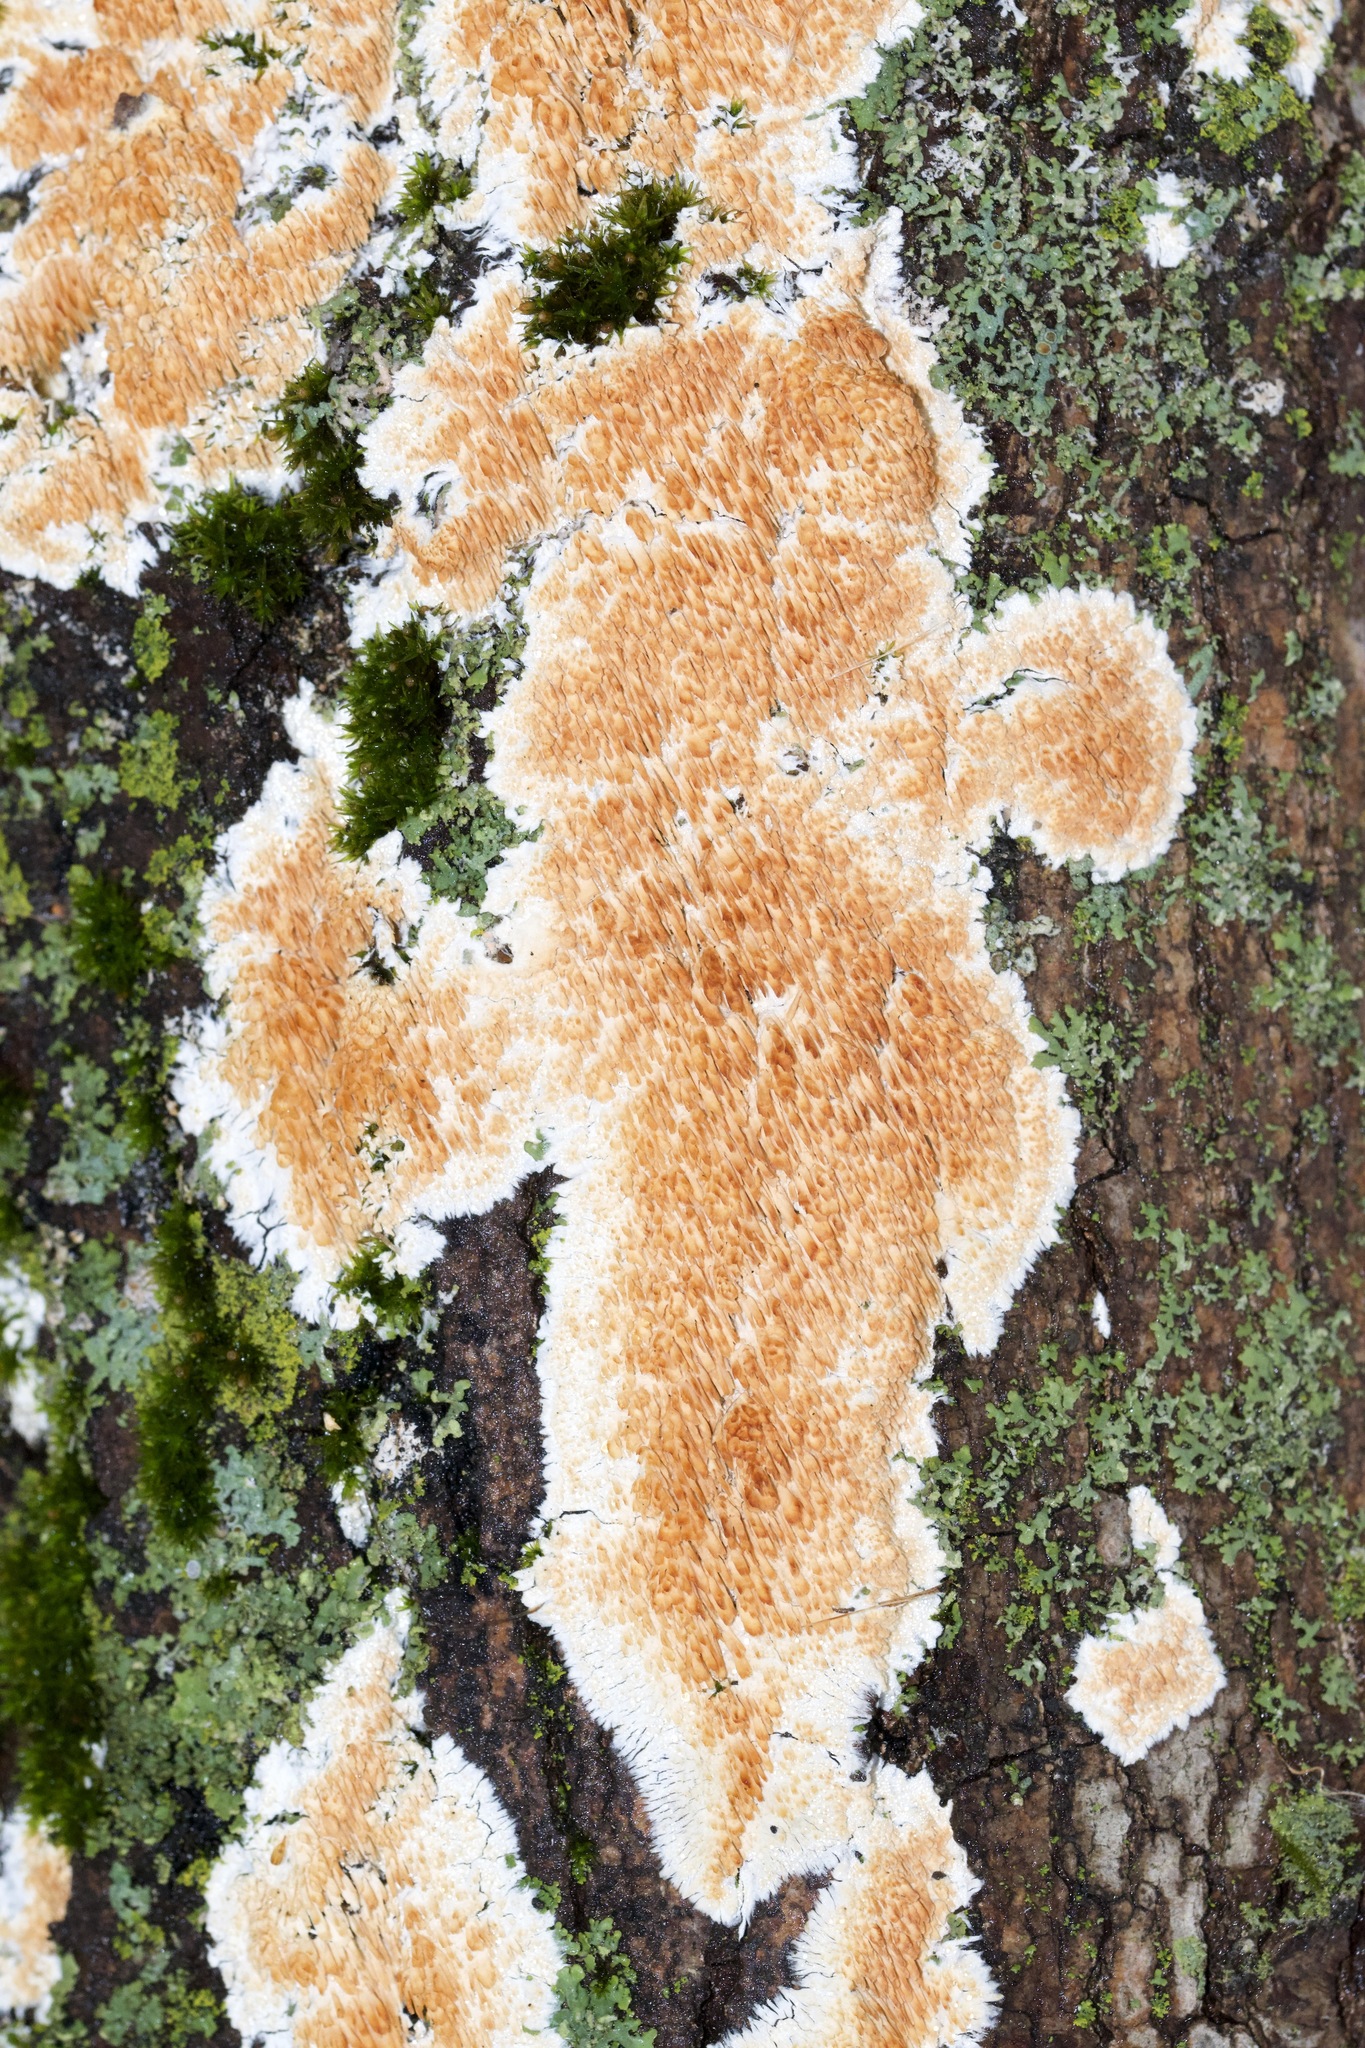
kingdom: Fungi
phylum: Basidiomycota
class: Agaricomycetes
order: Polyporales
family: Steccherinaceae
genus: Steccherinum
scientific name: Steccherinum ochraceum
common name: Ochre spreading tooth
